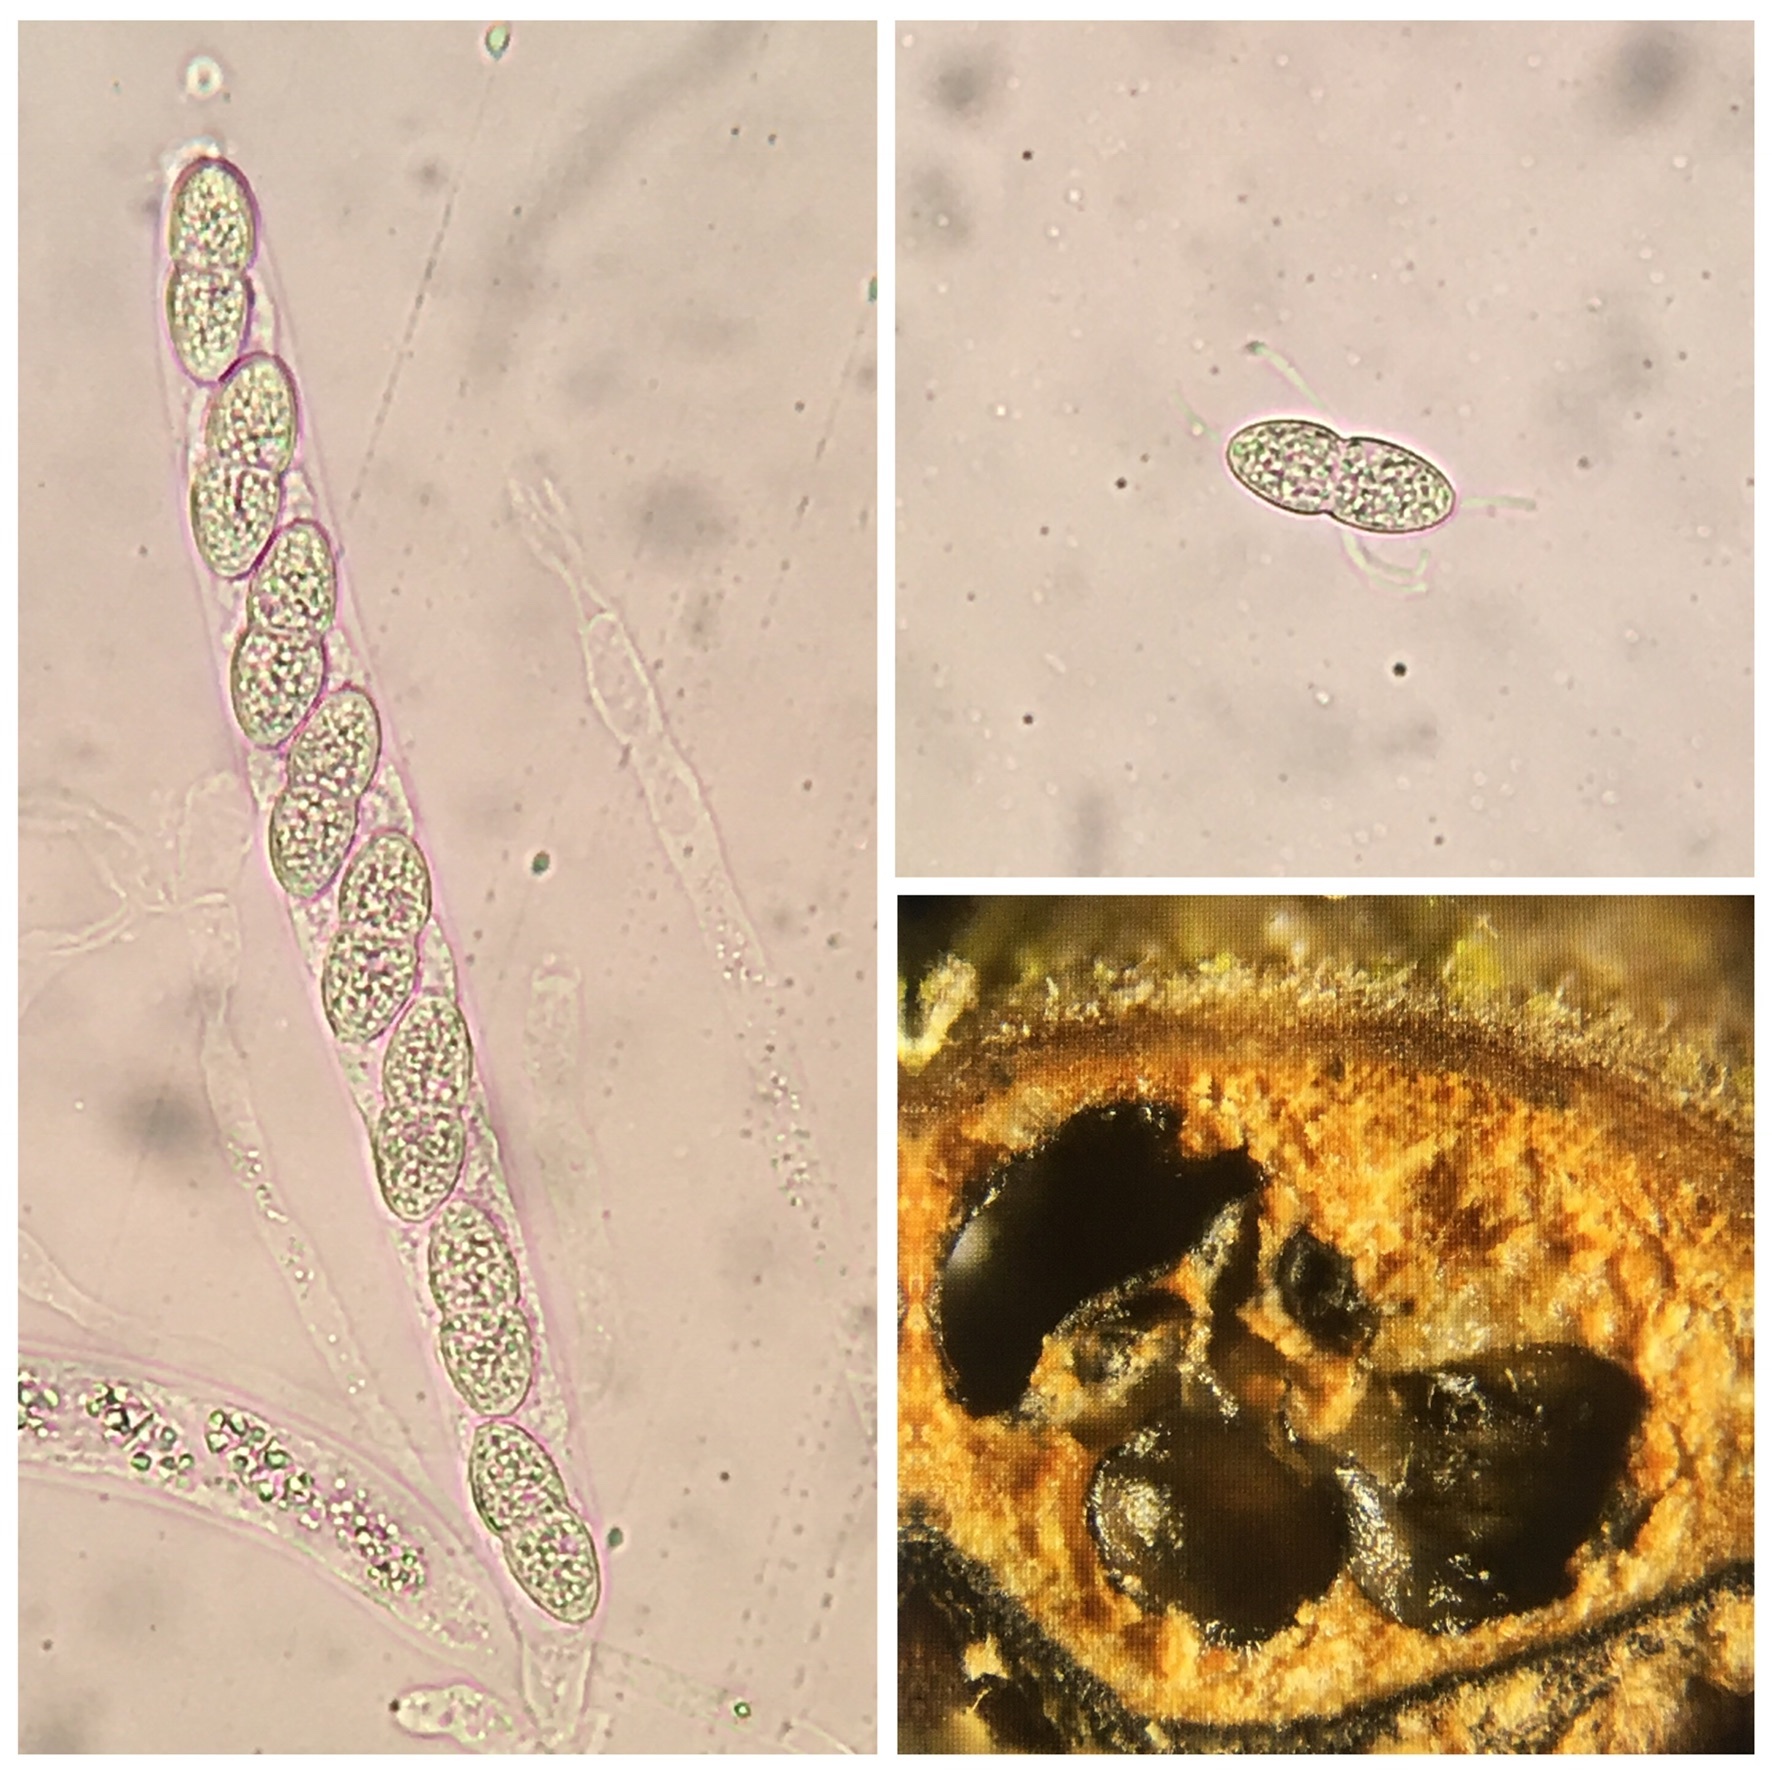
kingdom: Fungi
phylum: Ascomycota
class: Sordariomycetes
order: Diaporthales
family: Sydowiellaceae
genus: Caudospora
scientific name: Caudospora taleola
